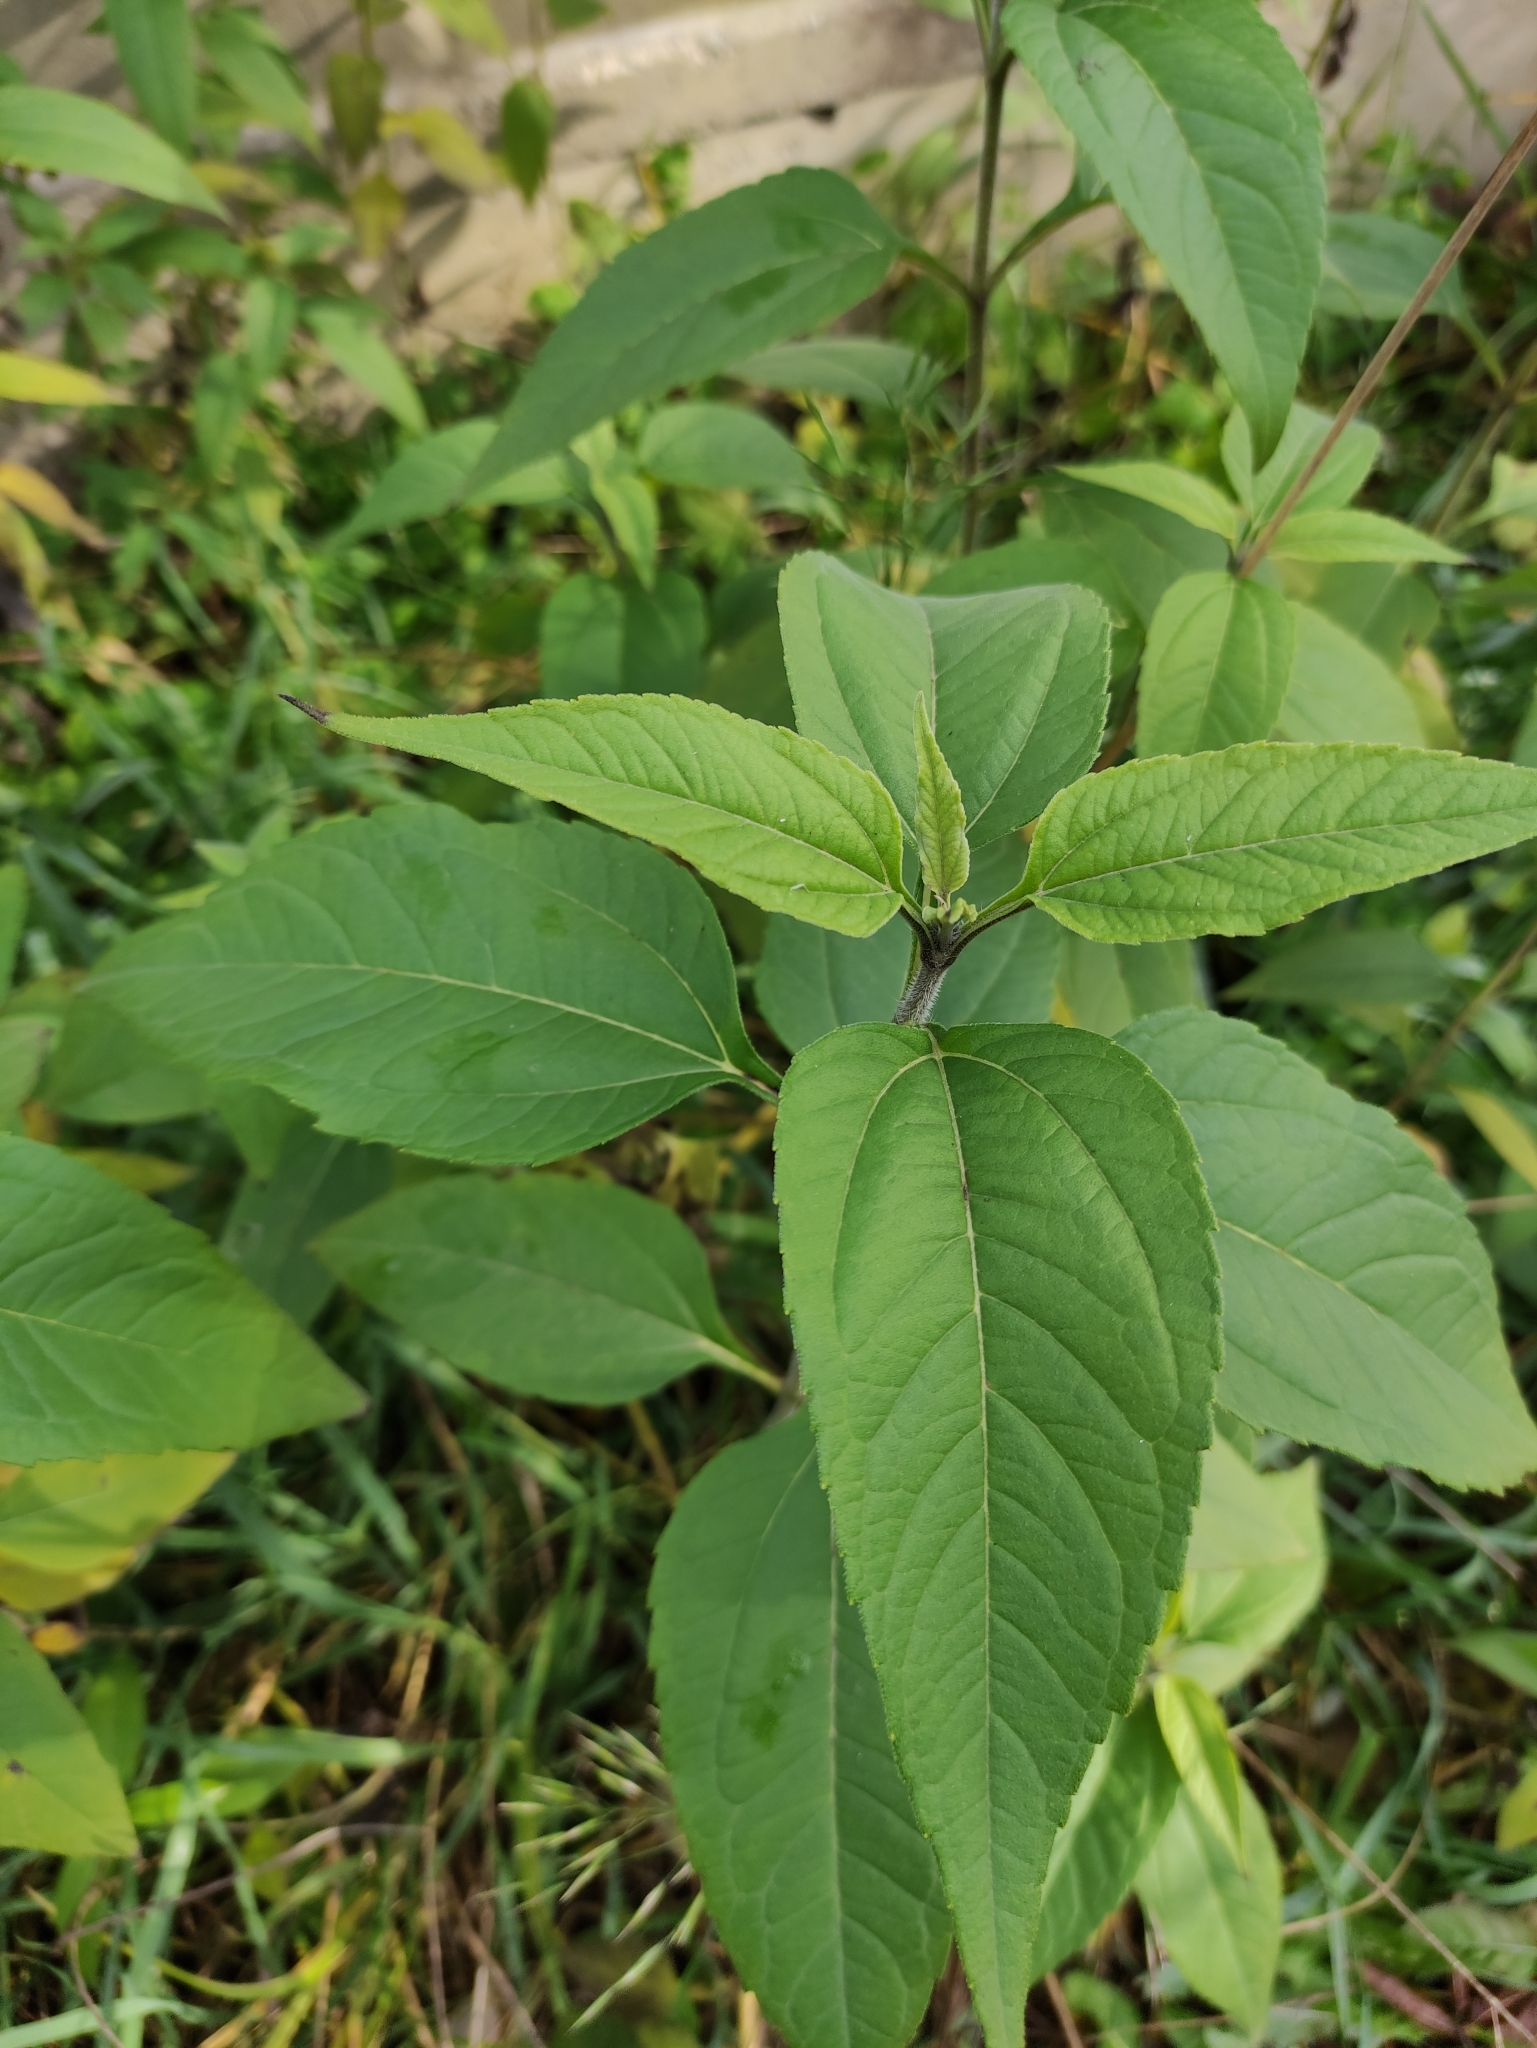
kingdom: Plantae
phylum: Tracheophyta
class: Magnoliopsida
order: Asterales
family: Asteraceae
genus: Helianthus
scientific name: Helianthus tuberosus
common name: Jerusalem artichoke
